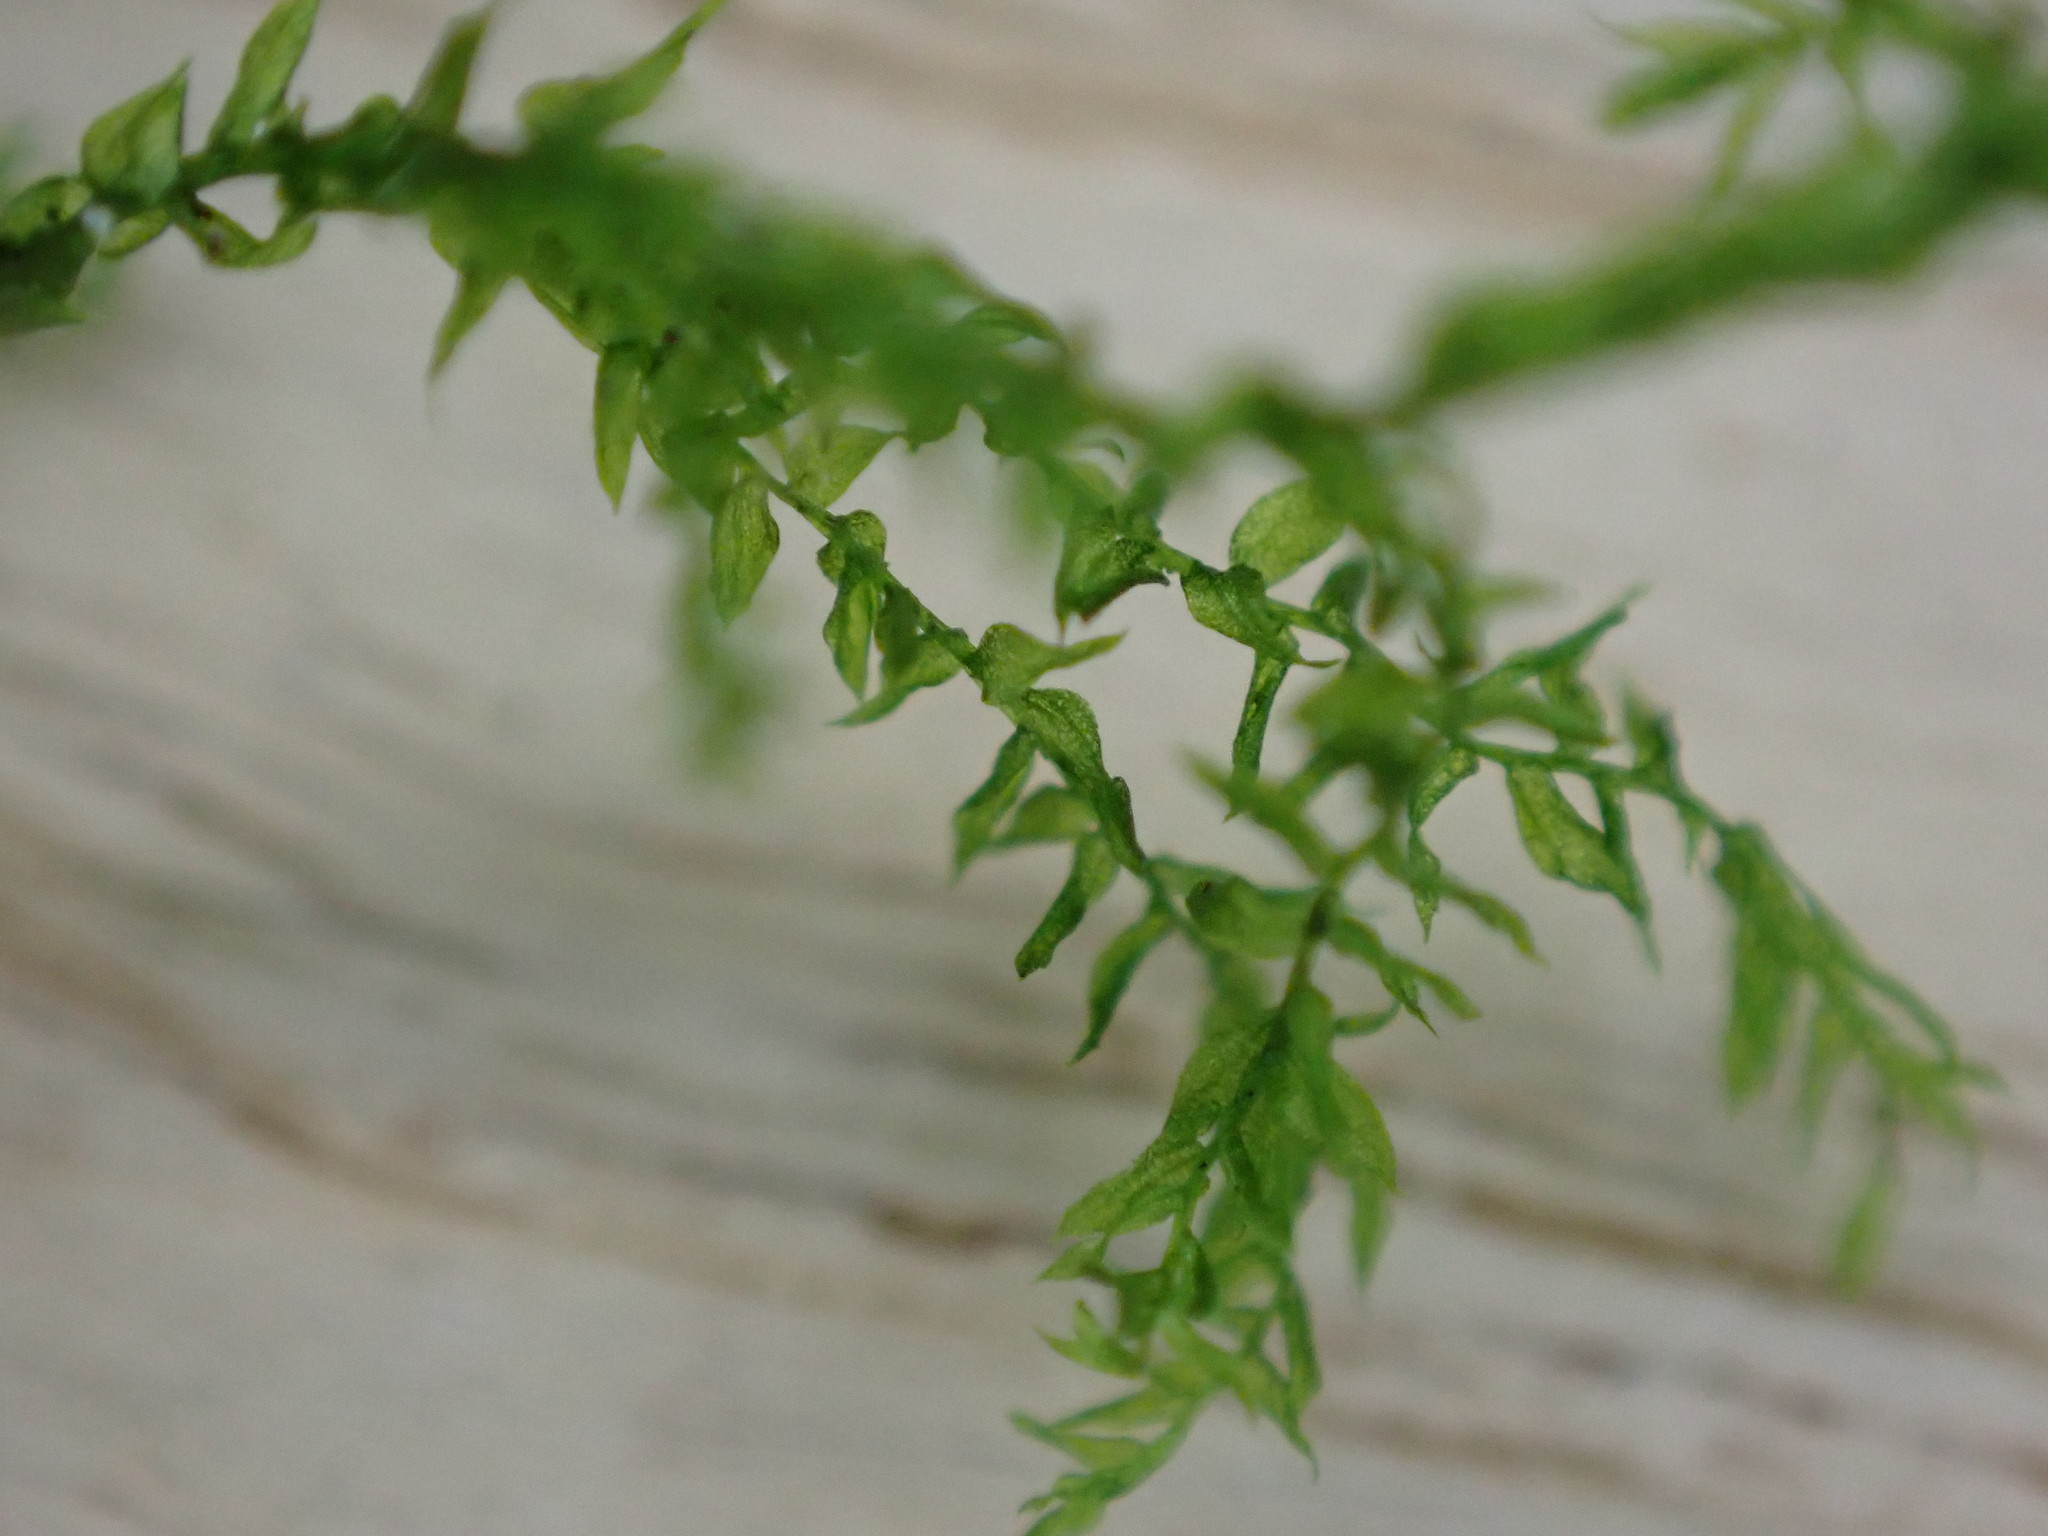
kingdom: Plantae
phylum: Bryophyta
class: Bryopsida
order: Hypnales
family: Brachytheciaceae
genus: Oxyrrhynchium
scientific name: Oxyrrhynchium hians
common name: Spreading beaked moss
